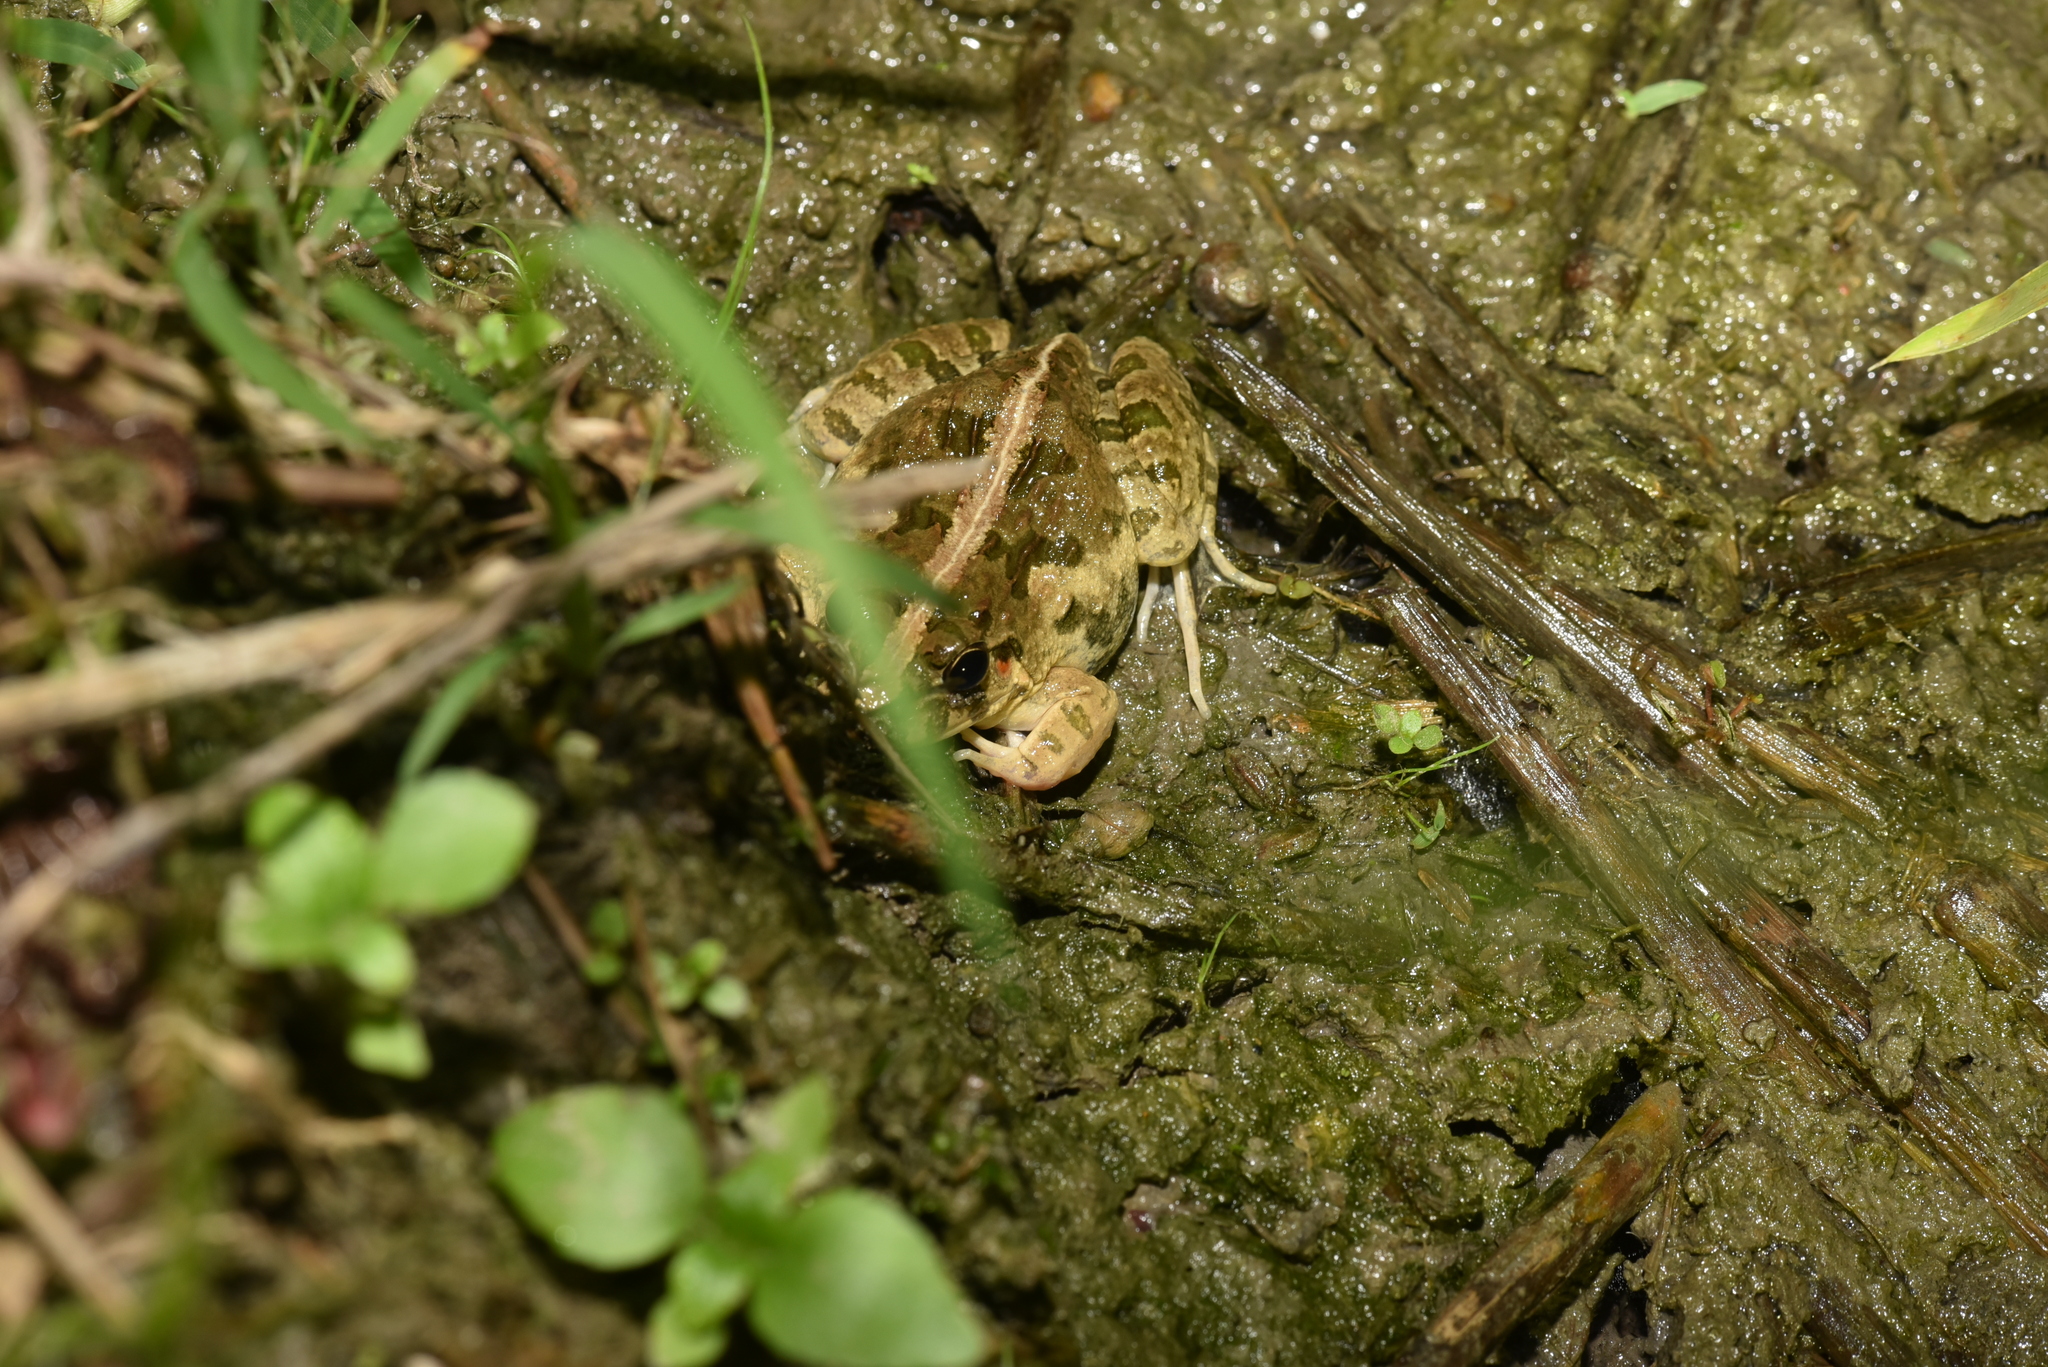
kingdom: Animalia
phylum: Chordata
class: Amphibia
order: Anura
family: Dicroglossidae
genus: Fejervarya
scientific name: Fejervarya limnocharis
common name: Asian grass frog/common pond frog/field frog/grass frog/indian rice frog
